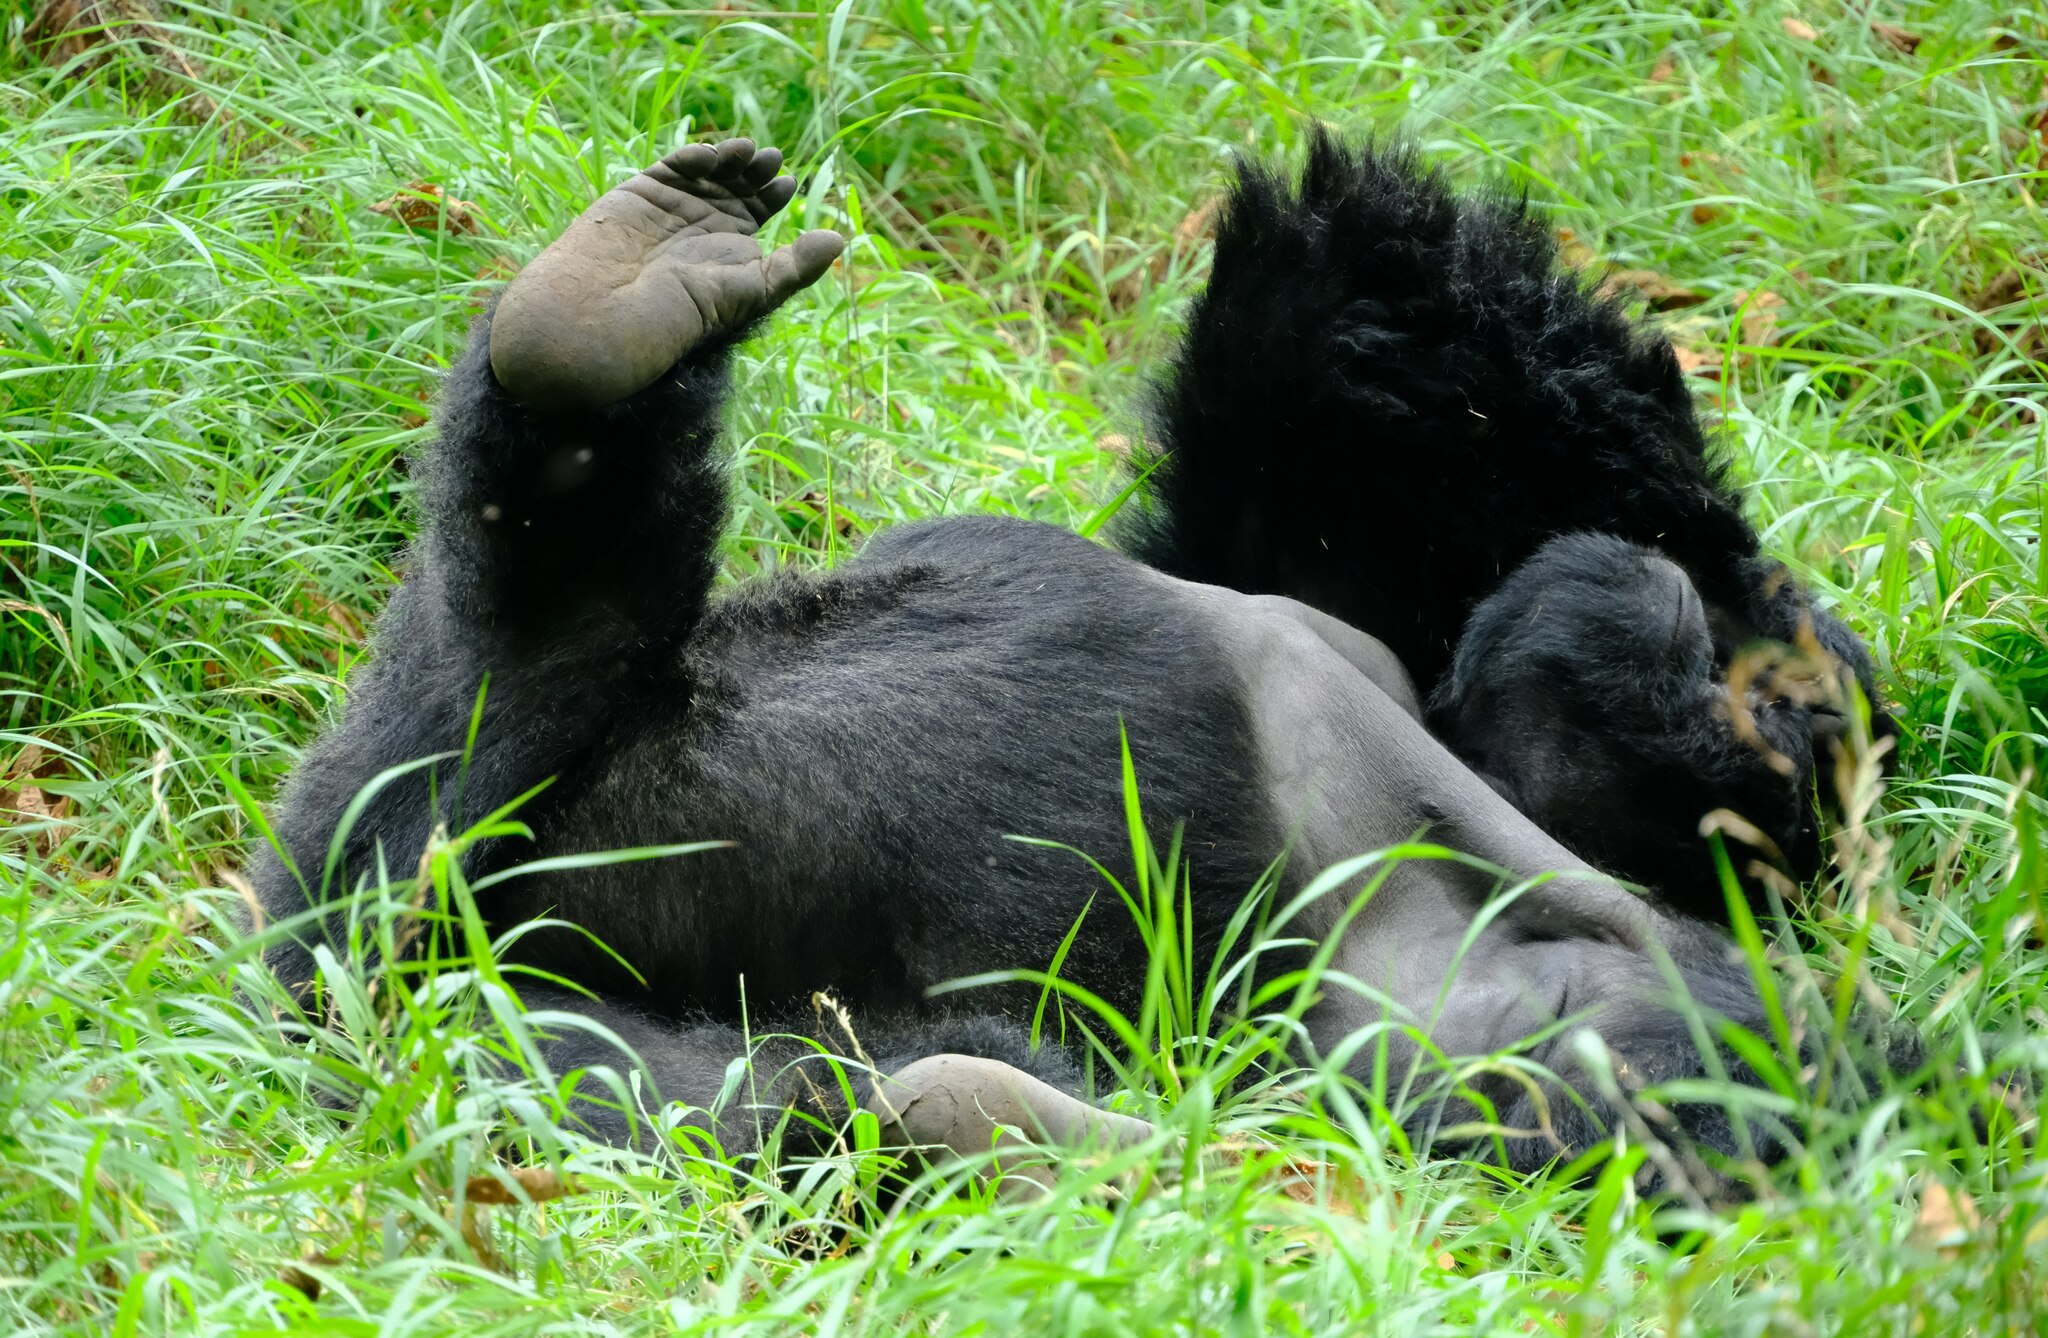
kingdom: Animalia
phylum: Chordata
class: Mammalia
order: Primates
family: Hominidae
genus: Gorilla
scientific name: Gorilla beringei
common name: Eastern gorilla
